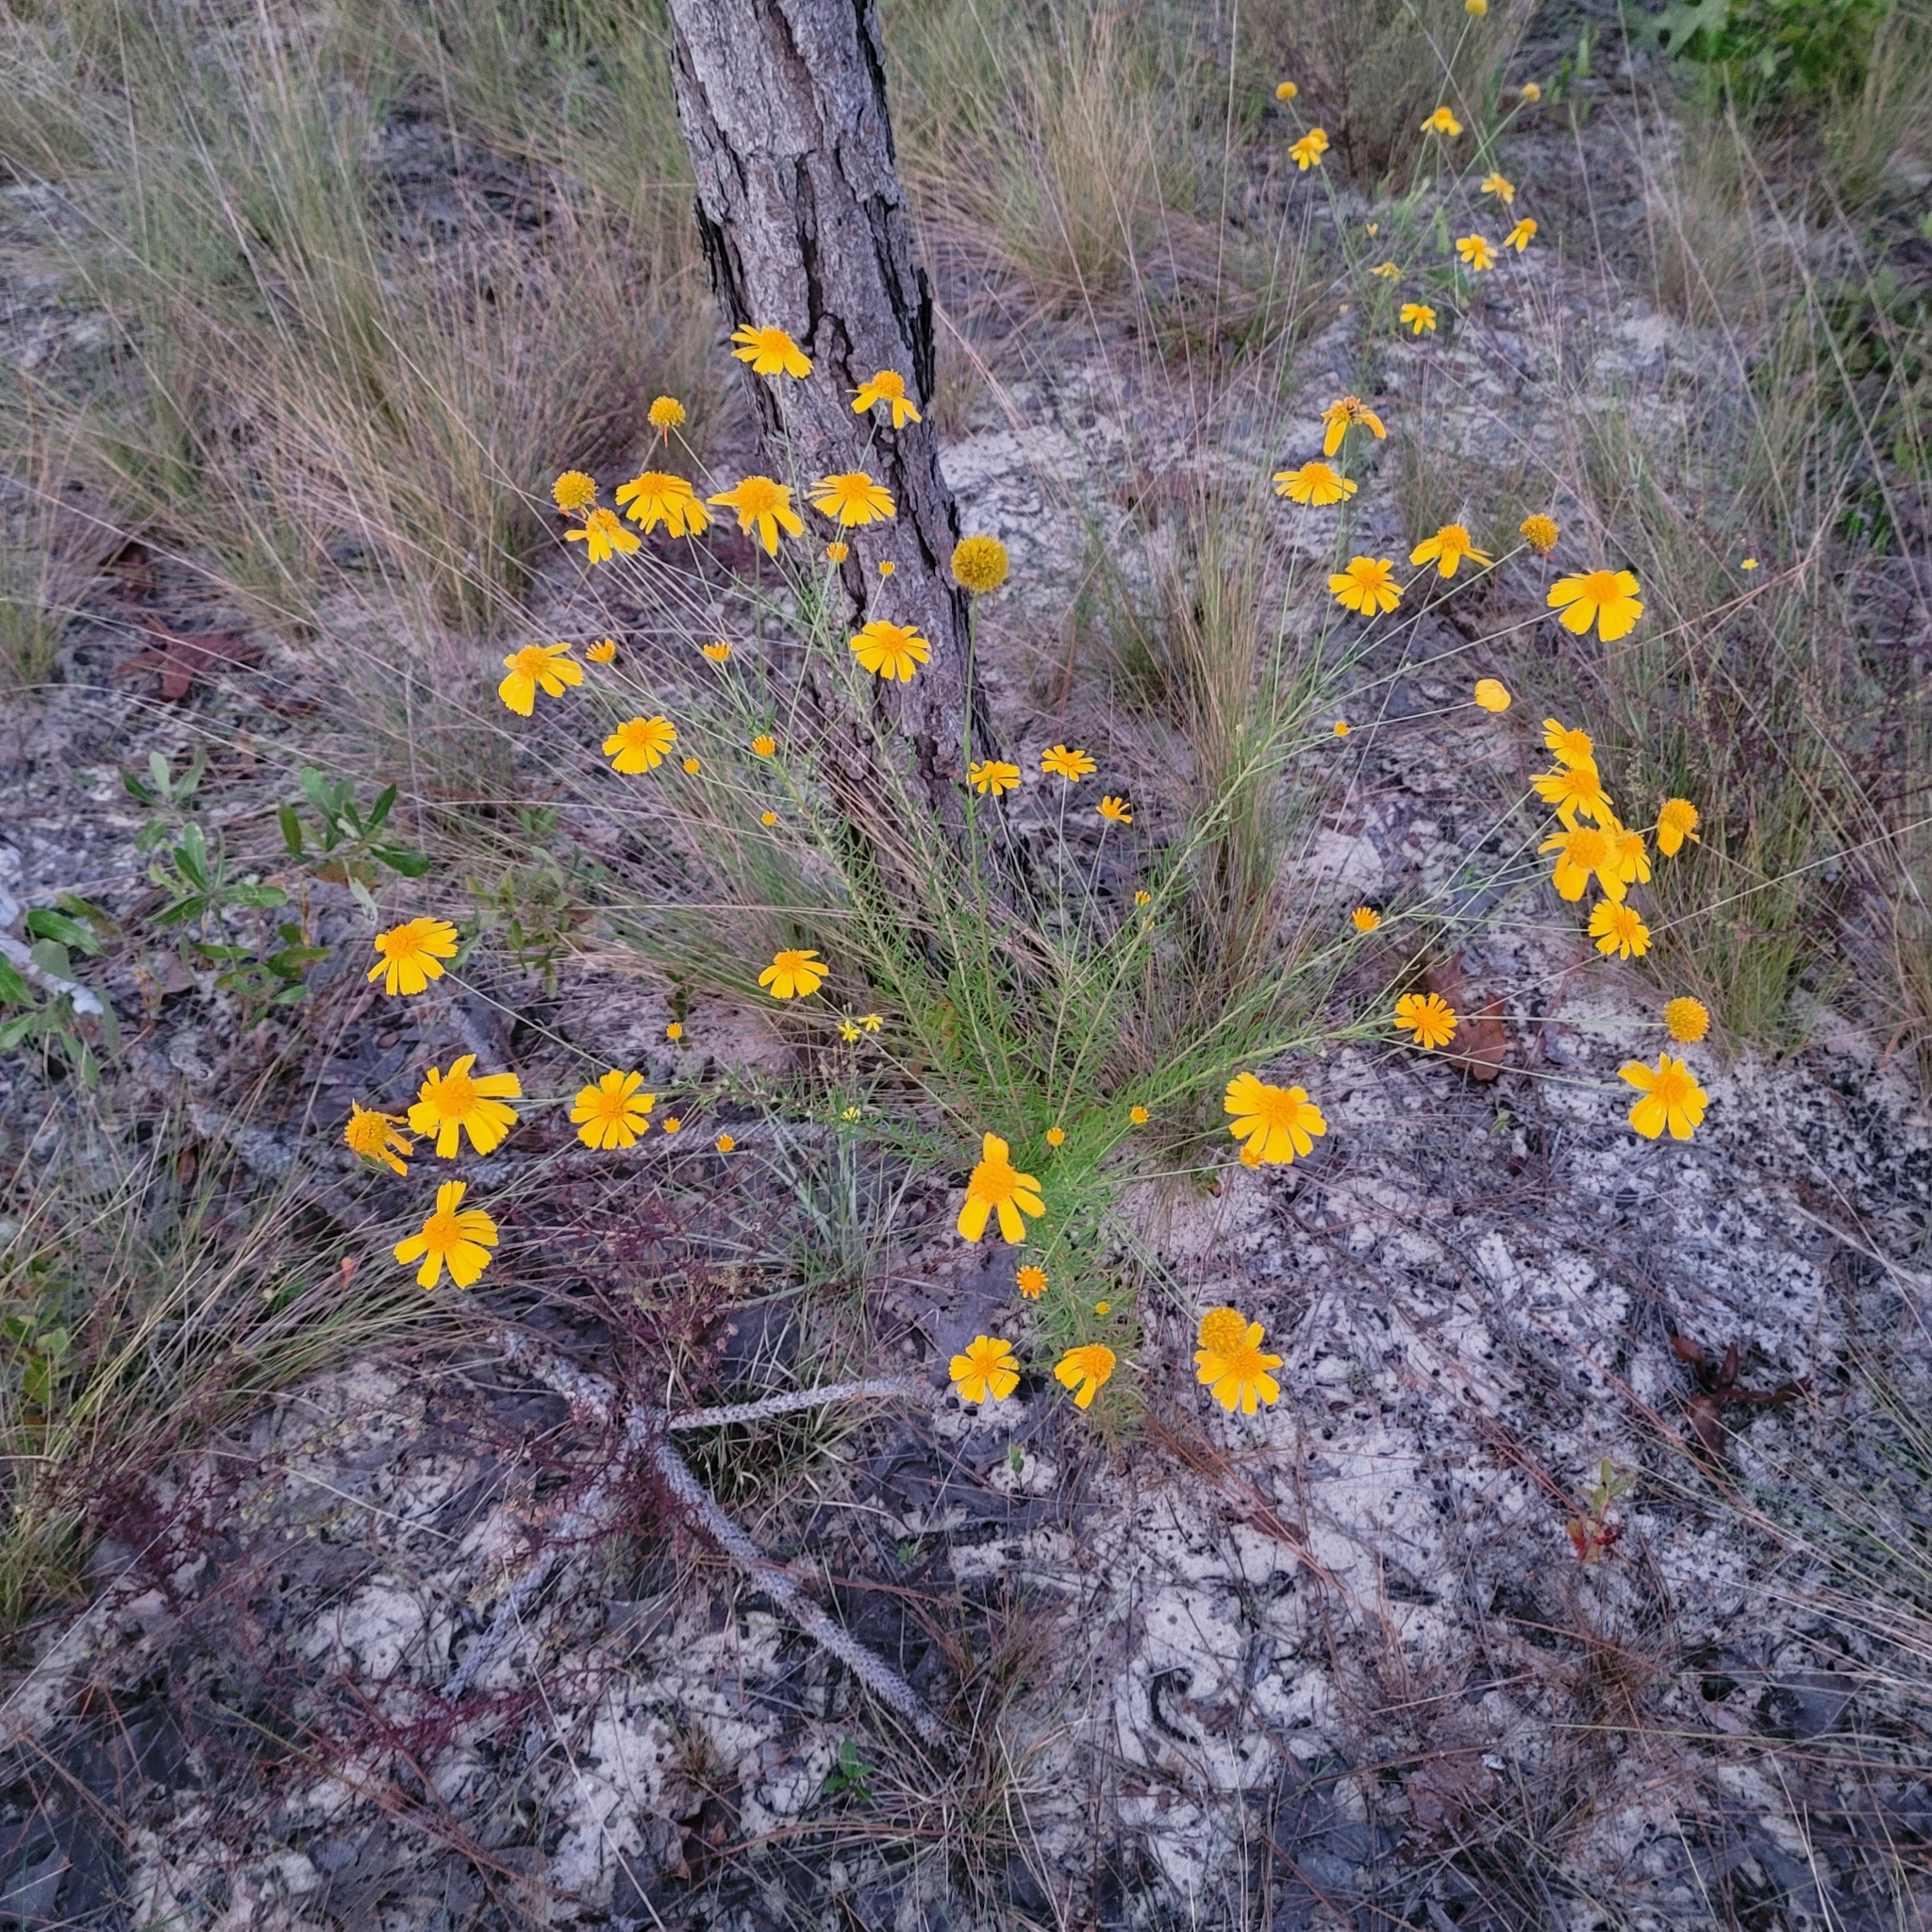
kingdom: Plantae
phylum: Tracheophyta
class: Magnoliopsida
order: Asterales
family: Asteraceae
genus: Balduina
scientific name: Balduina angustifolia
